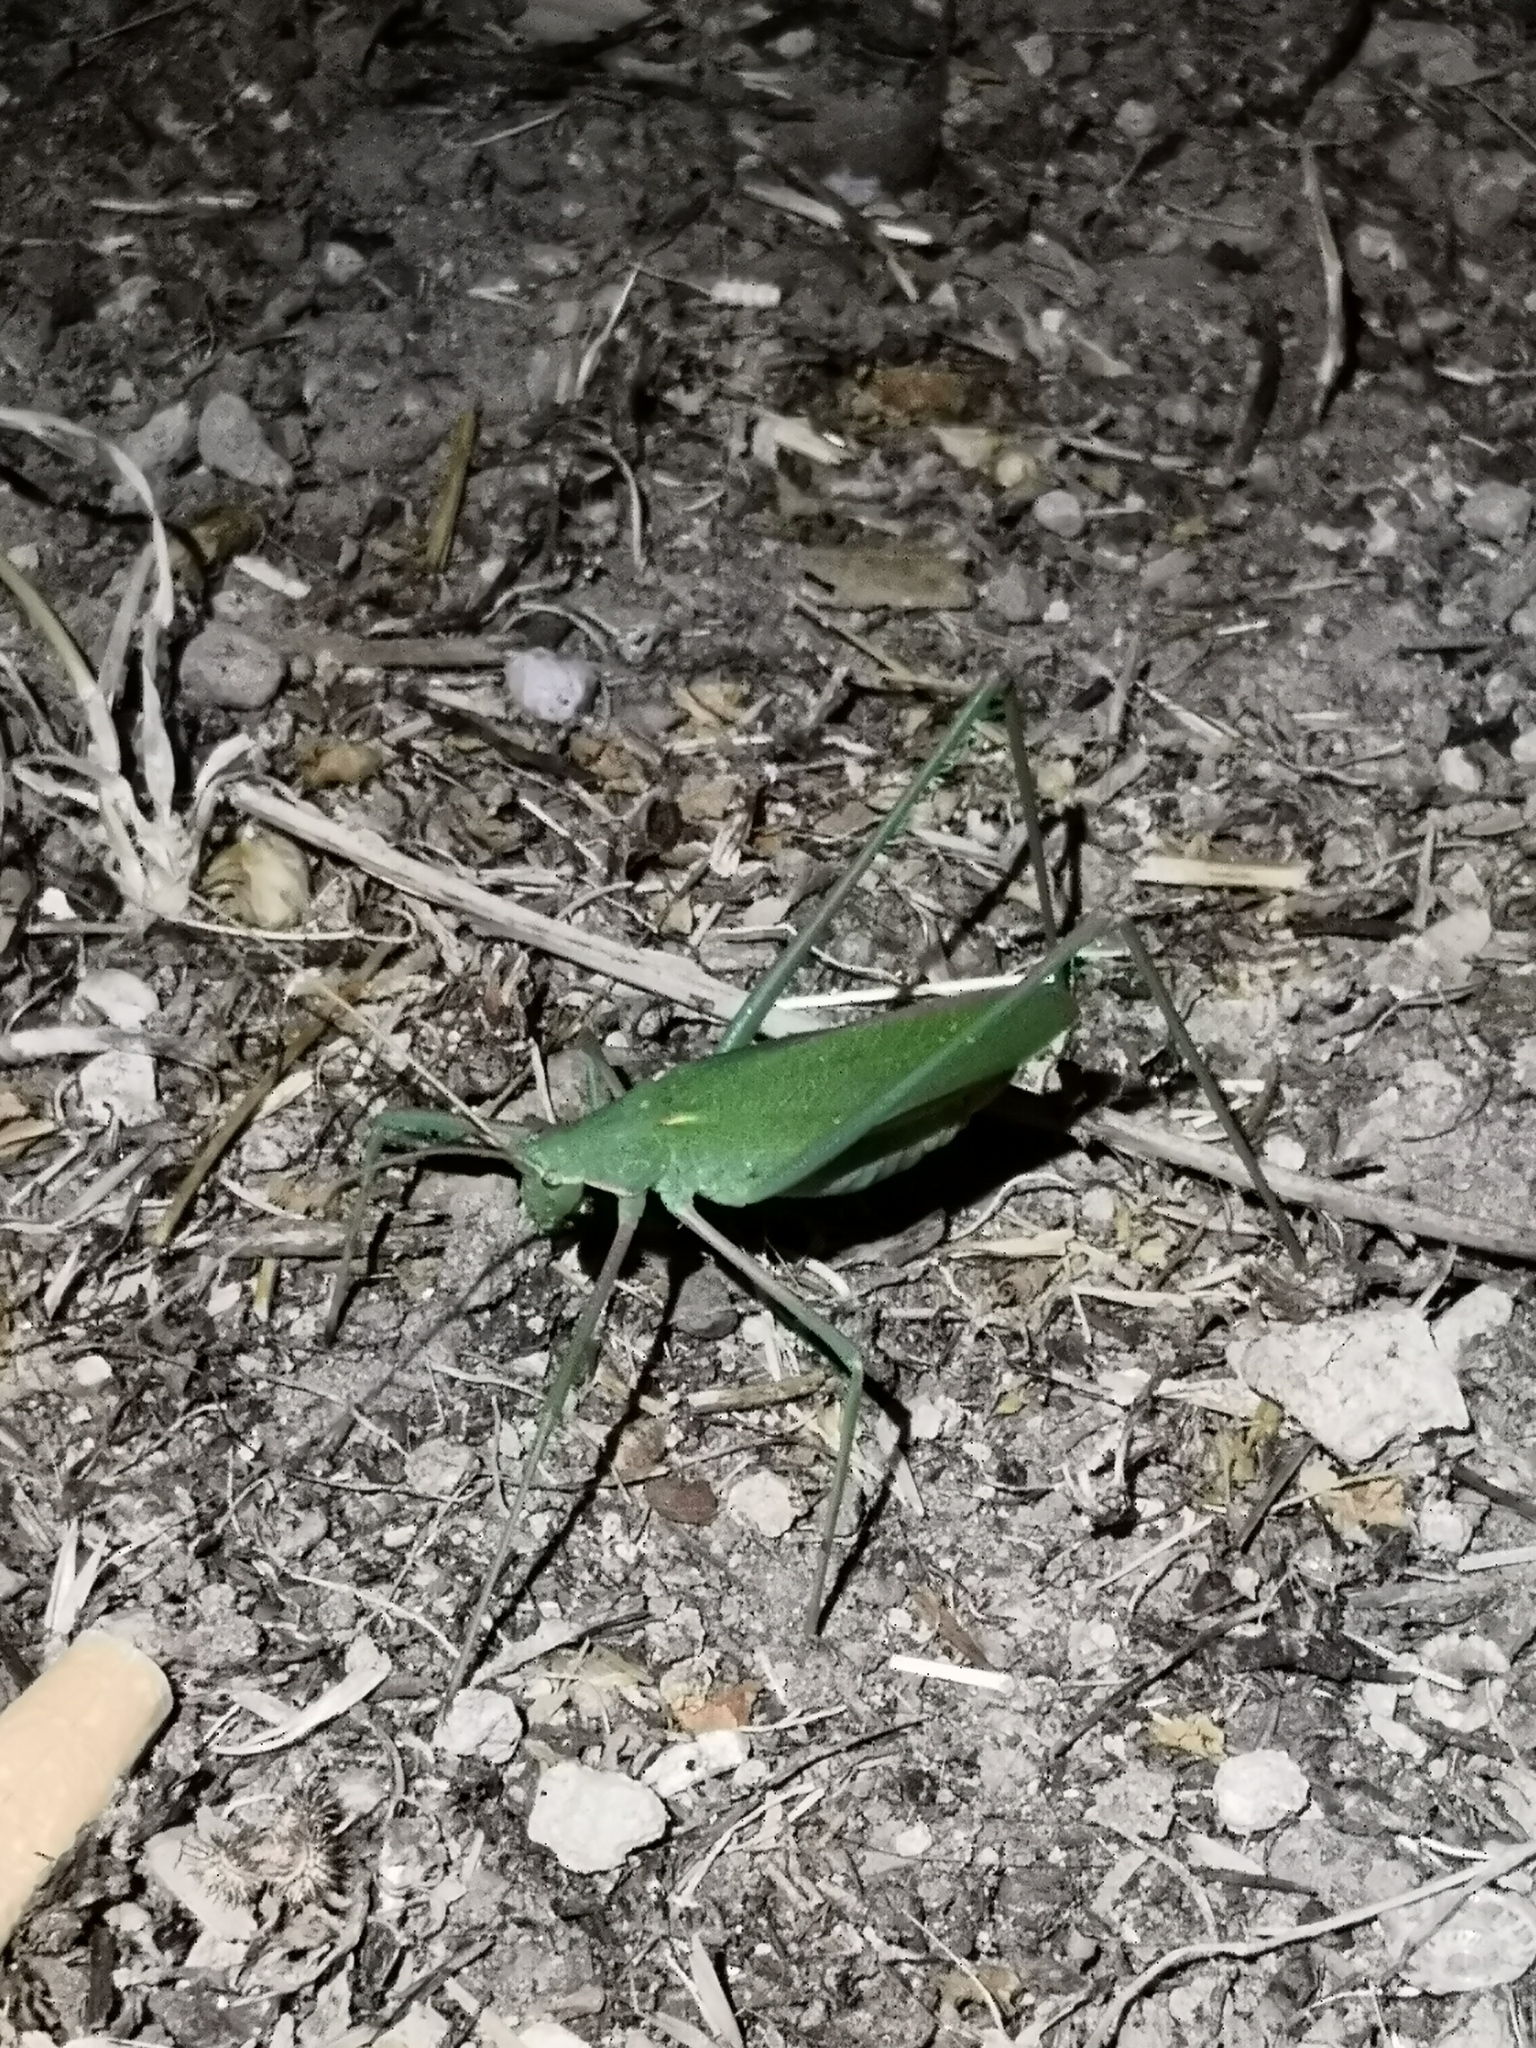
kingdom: Animalia
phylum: Arthropoda
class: Insecta
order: Orthoptera
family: Tettigoniidae
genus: Acrometopa
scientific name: Acrometopa
